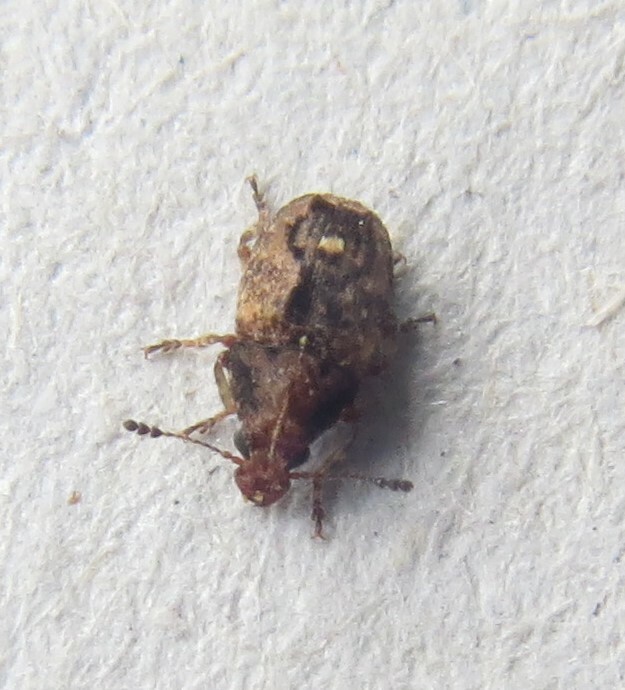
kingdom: Animalia
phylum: Arthropoda
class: Insecta
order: Coleoptera
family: Anthribidae
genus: Garyus
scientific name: Garyus altus
